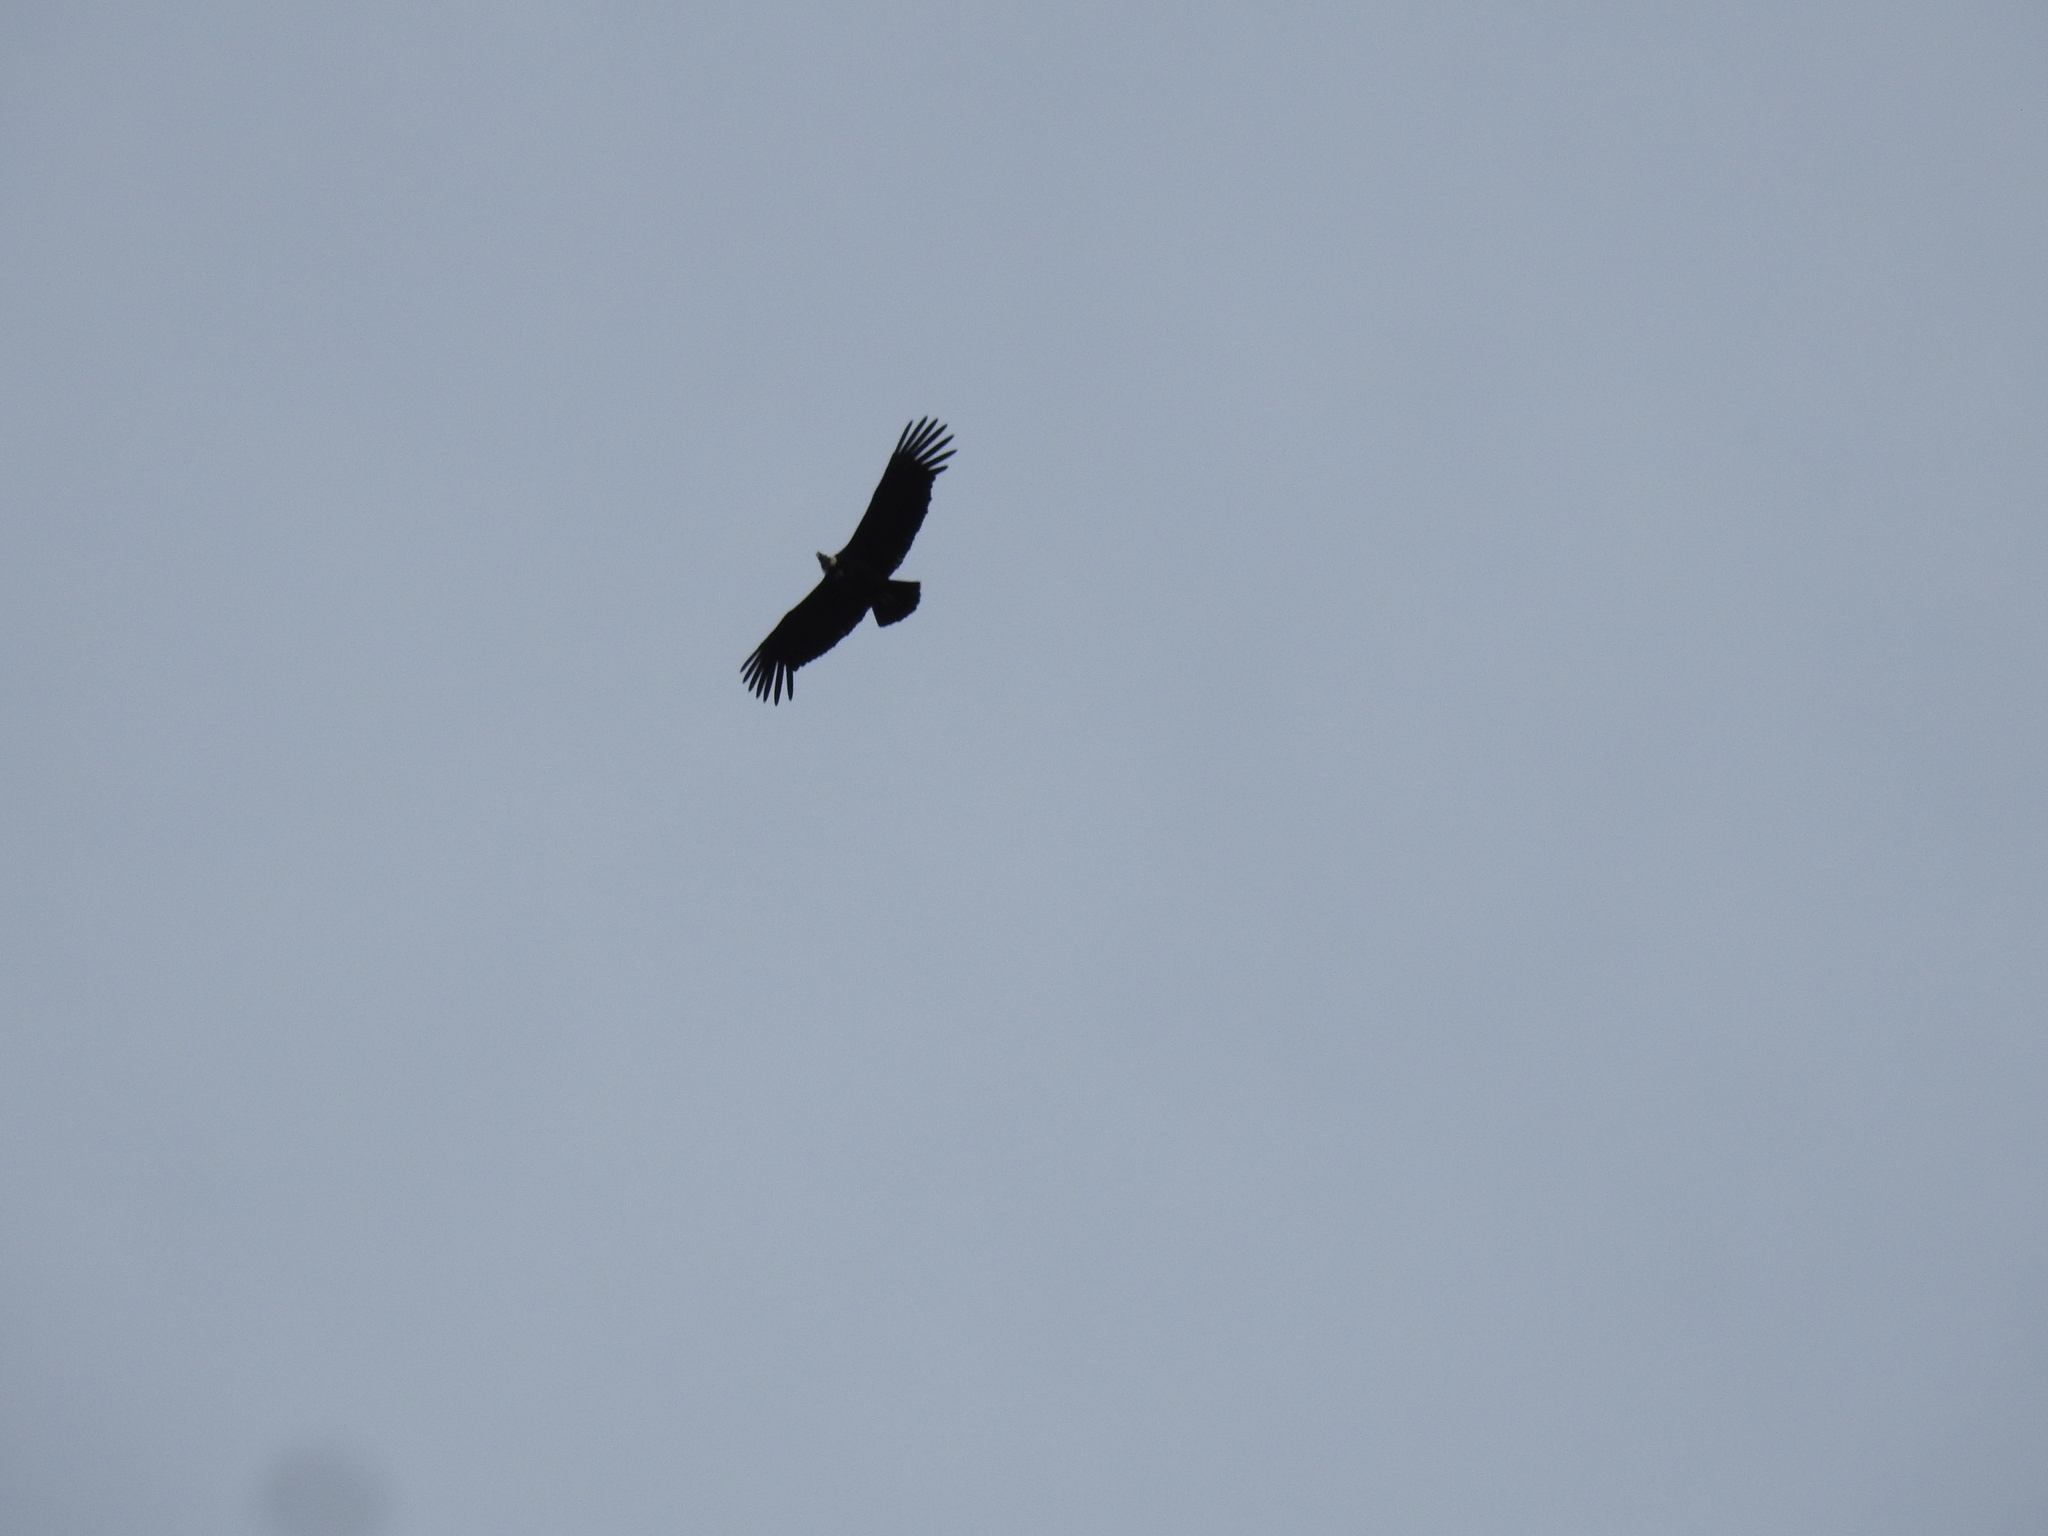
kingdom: Animalia
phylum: Chordata
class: Aves
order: Accipitriformes
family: Cathartidae
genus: Vultur
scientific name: Vultur gryphus
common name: Andean condor
